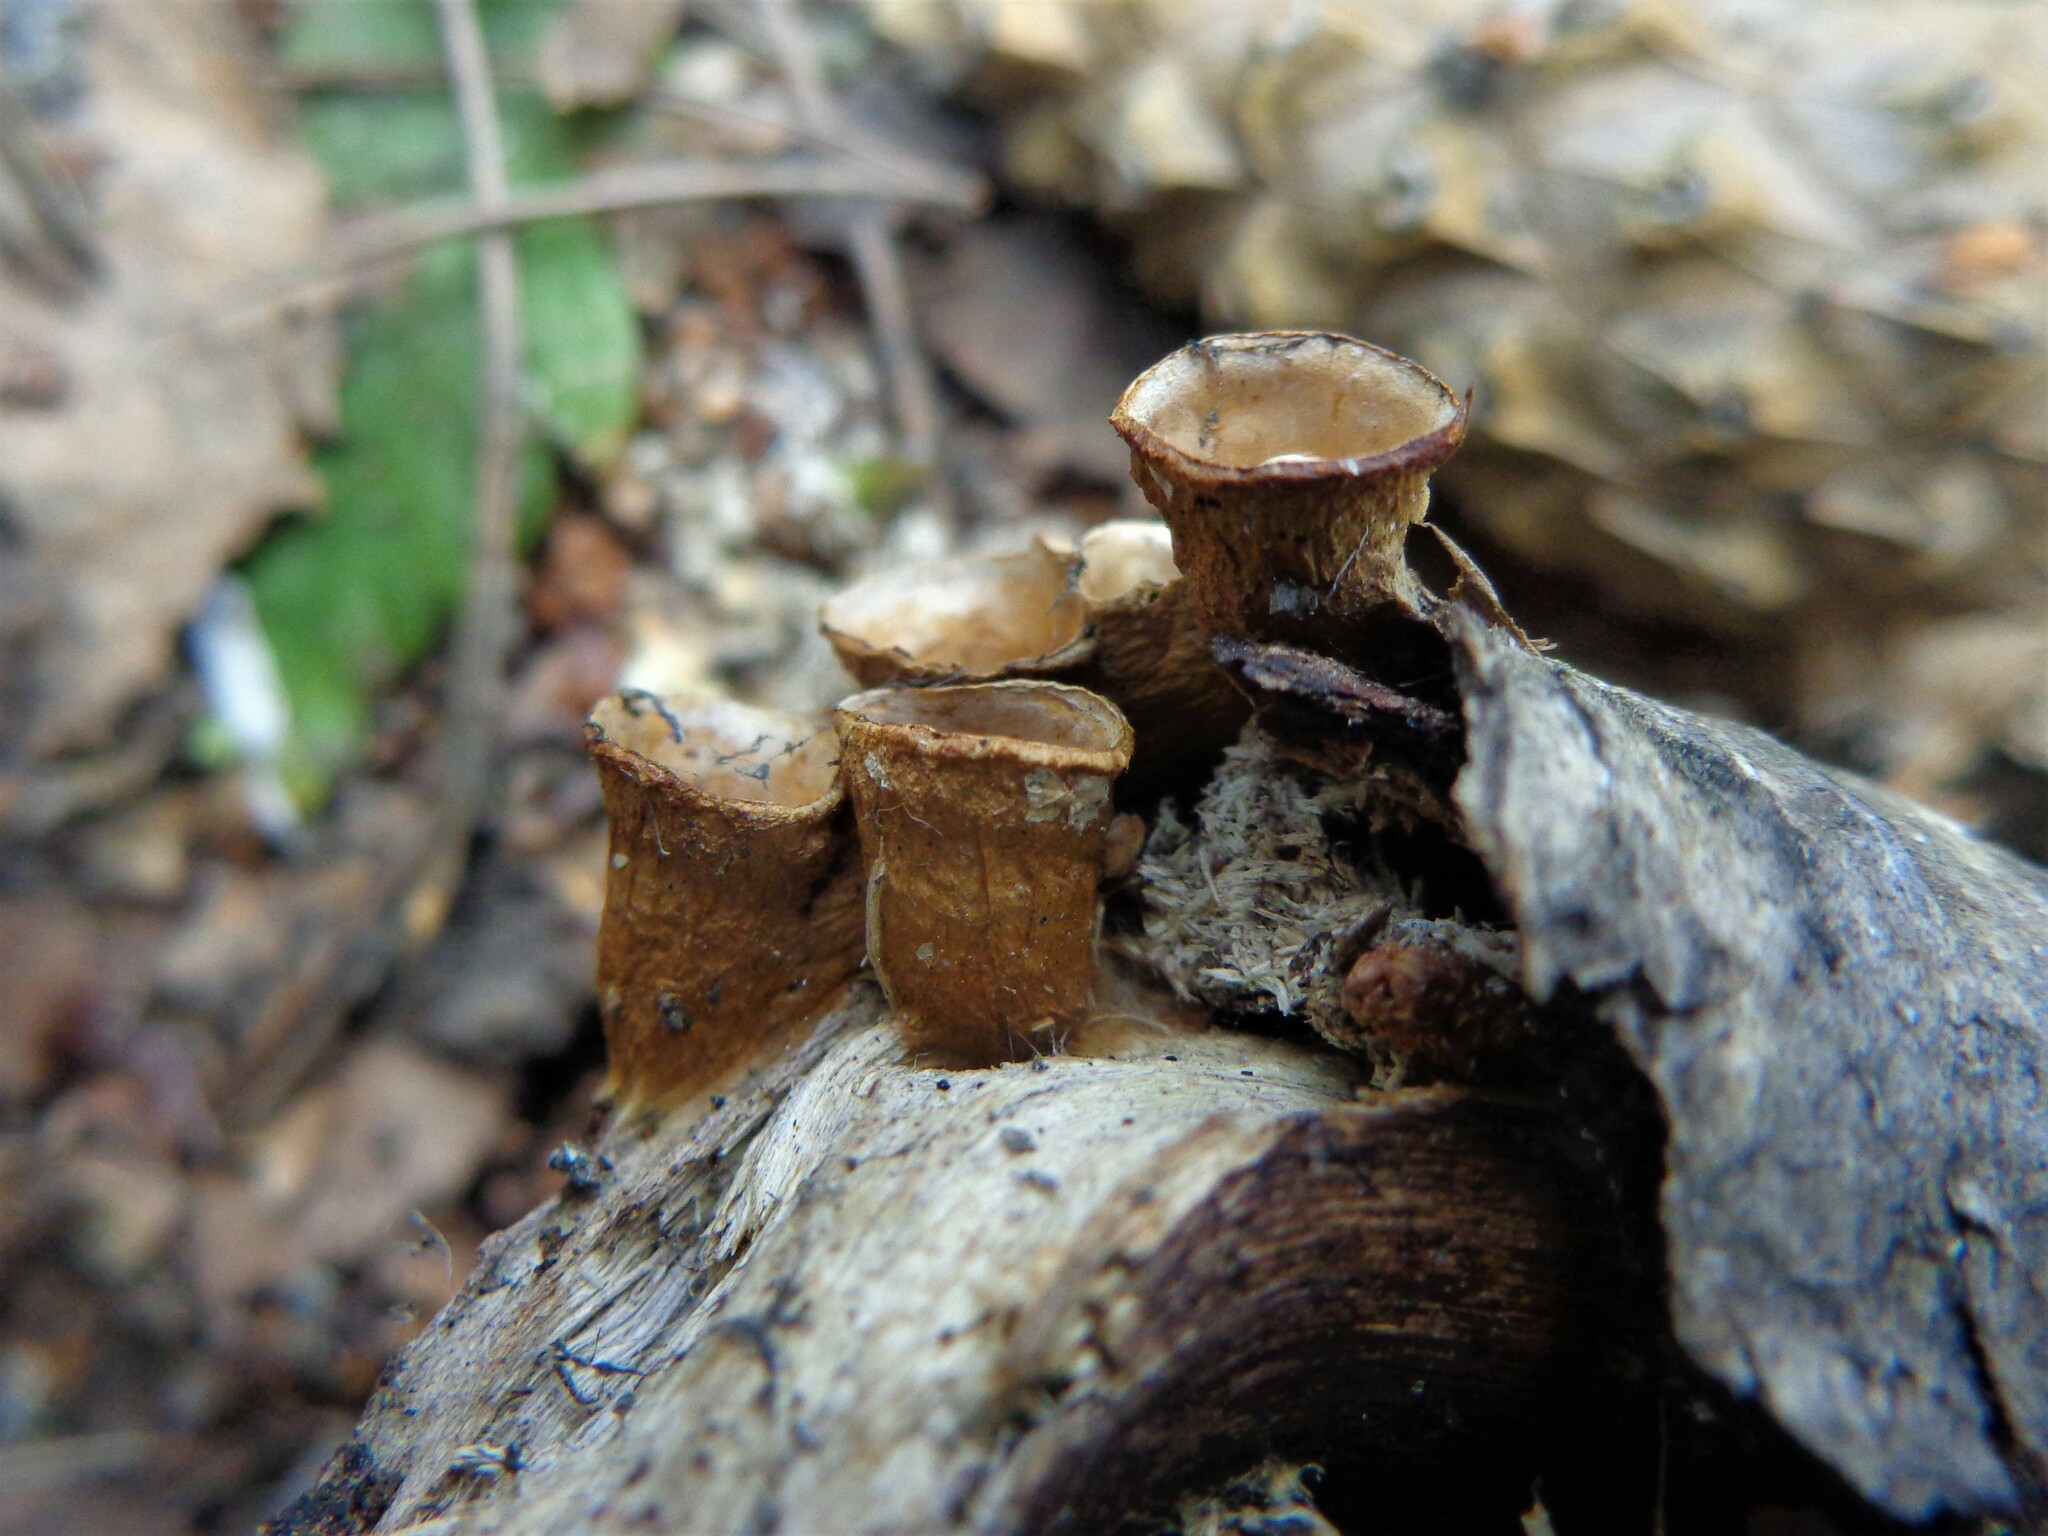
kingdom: Fungi
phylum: Basidiomycota
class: Agaricomycetes
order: Agaricales
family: Nidulariaceae
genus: Crucibulum
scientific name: Crucibulum laeve
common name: Common bird's nest
